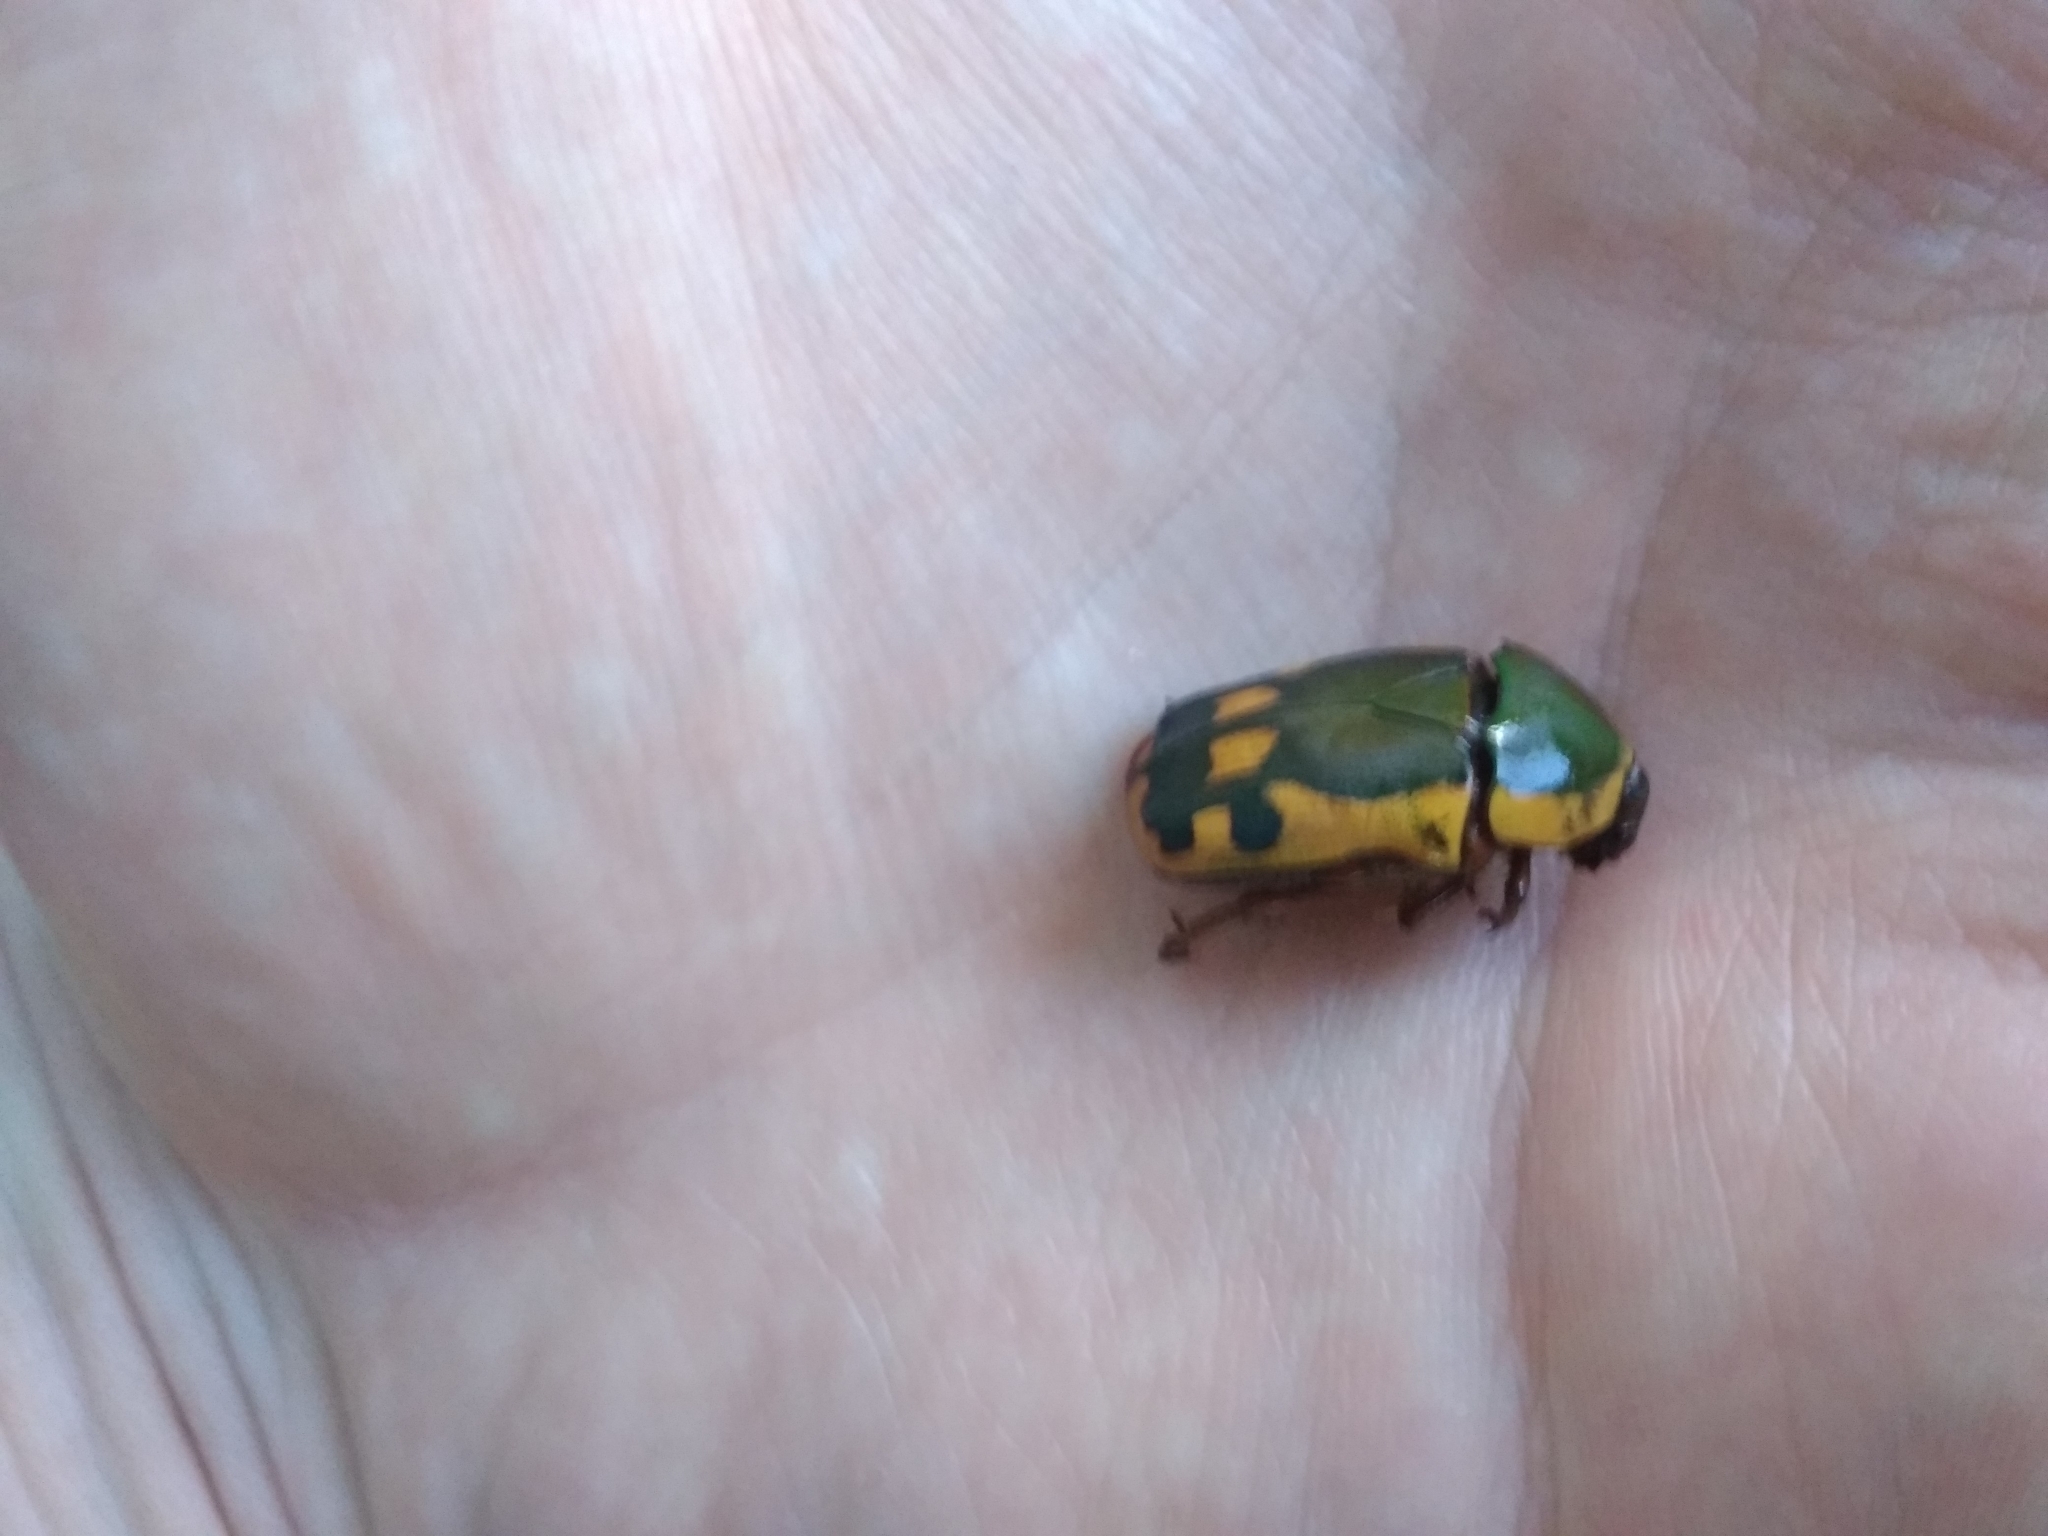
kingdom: Animalia
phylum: Arthropoda
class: Insecta
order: Coleoptera
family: Scarabaeidae
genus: Marmylida
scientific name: Marmylida impressa
